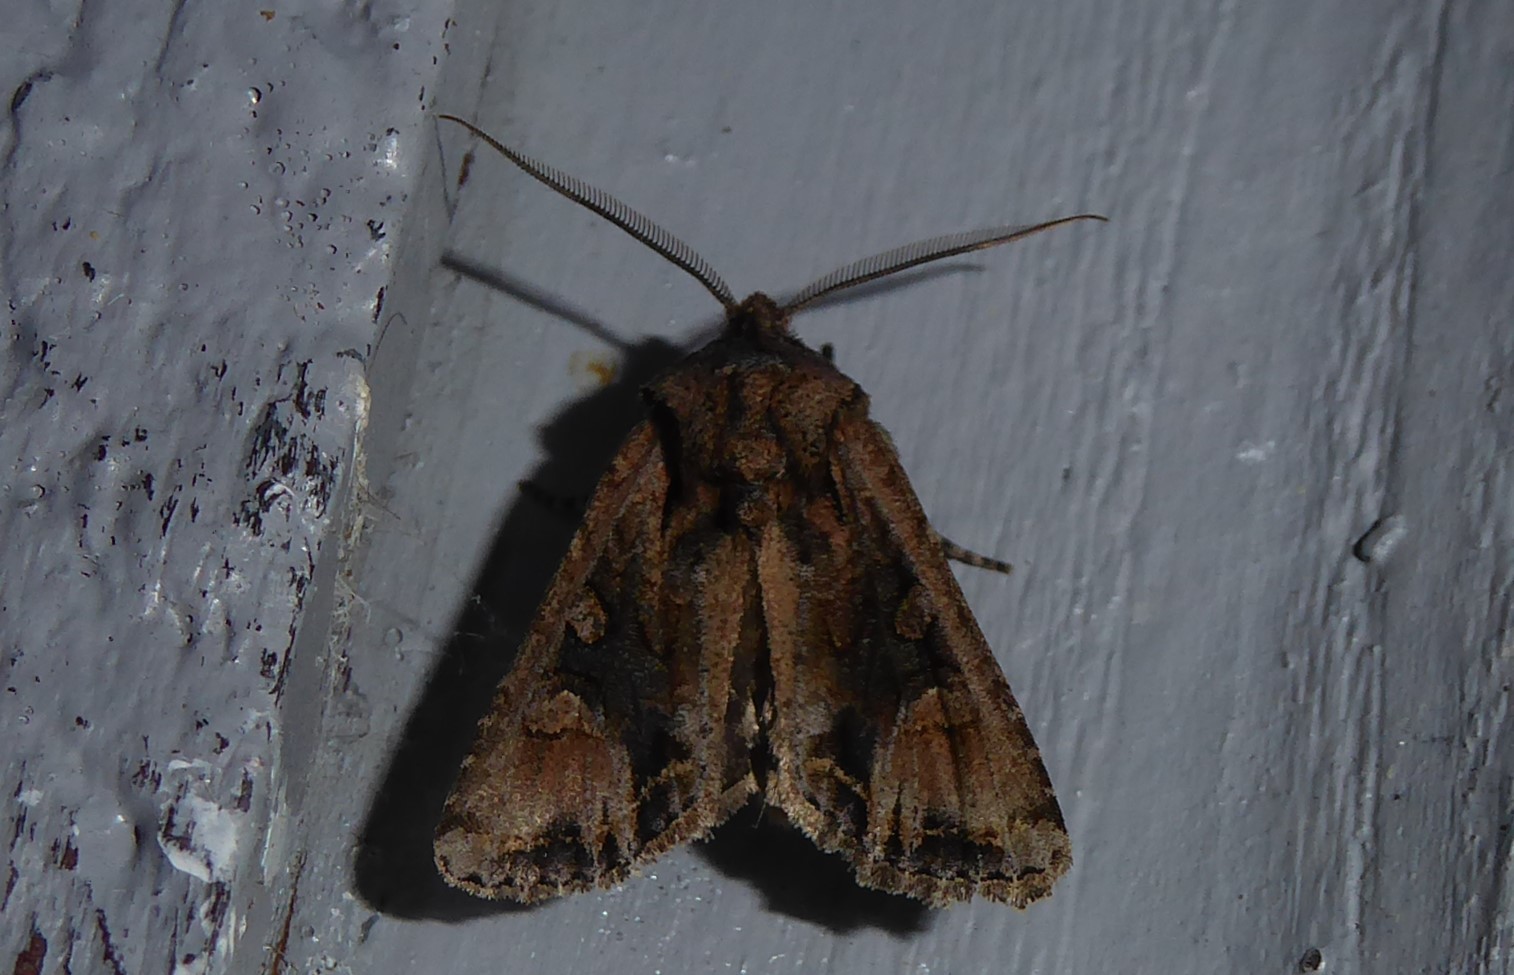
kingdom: Animalia
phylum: Arthropoda
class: Insecta
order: Lepidoptera
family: Noctuidae
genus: Ichneutica
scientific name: Ichneutica
